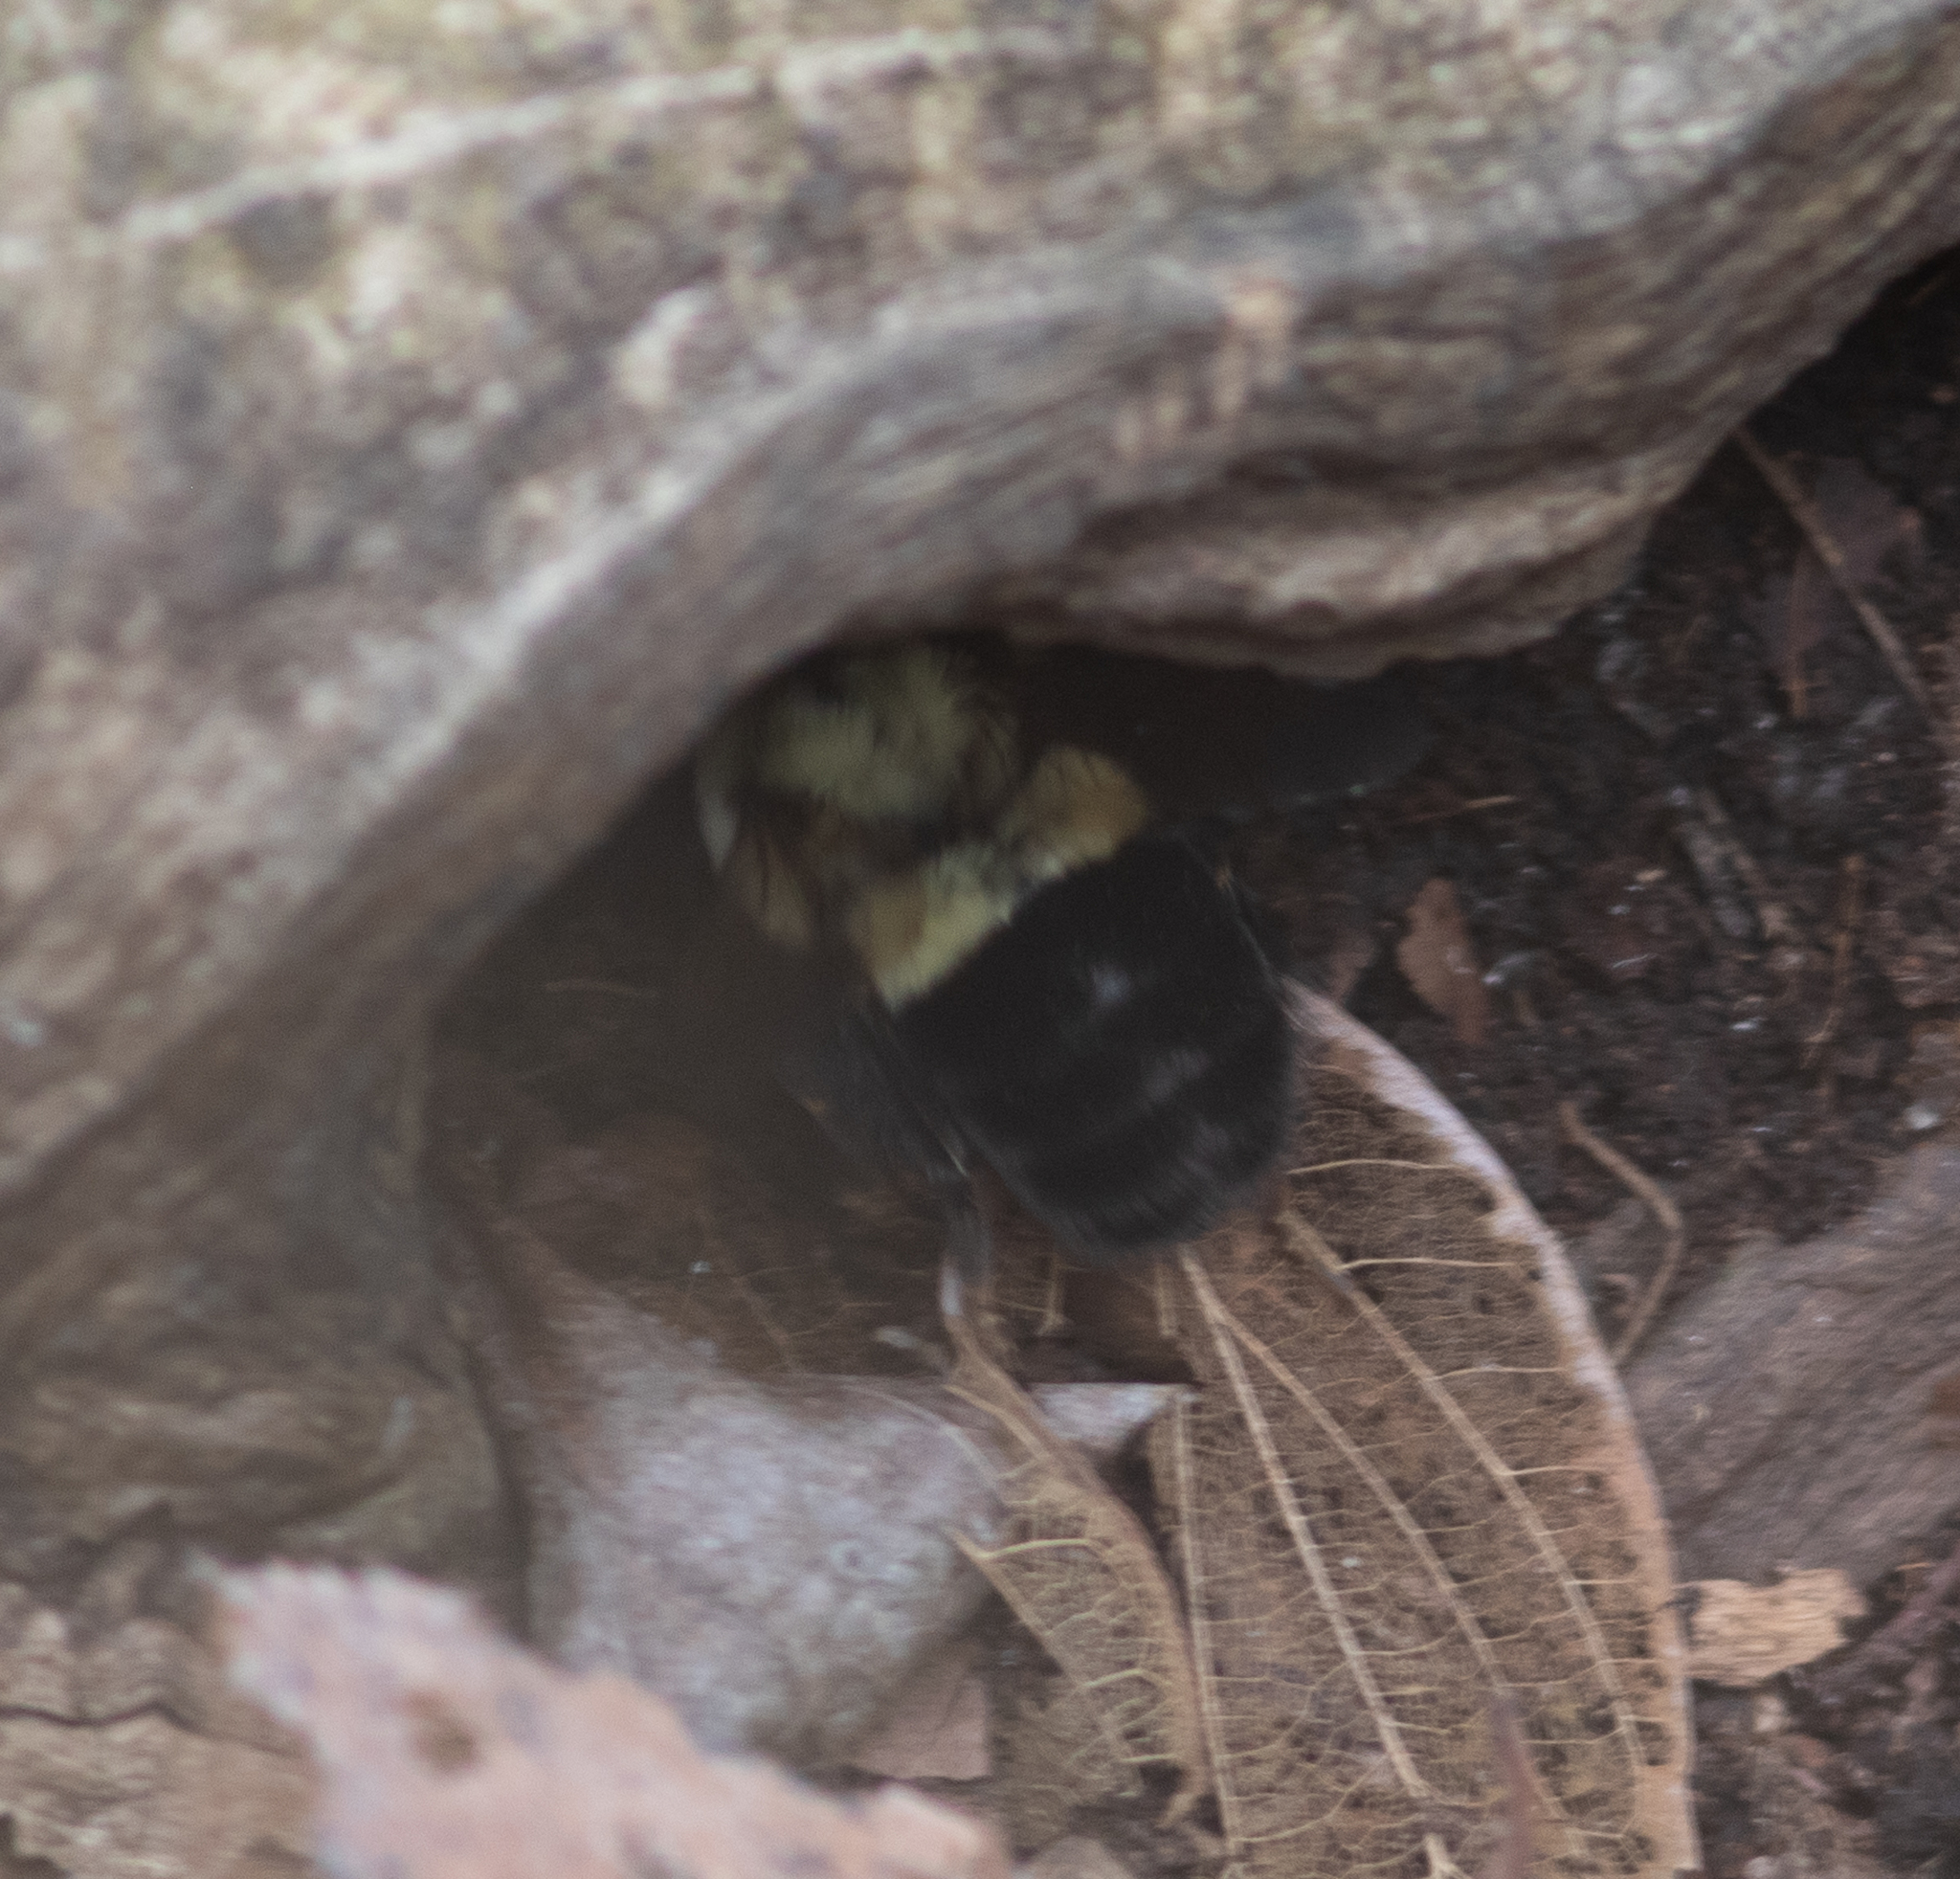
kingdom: Animalia
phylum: Arthropoda
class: Insecta
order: Hymenoptera
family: Apidae
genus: Bombus
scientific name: Bombus impatiens
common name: Common eastern bumble bee
